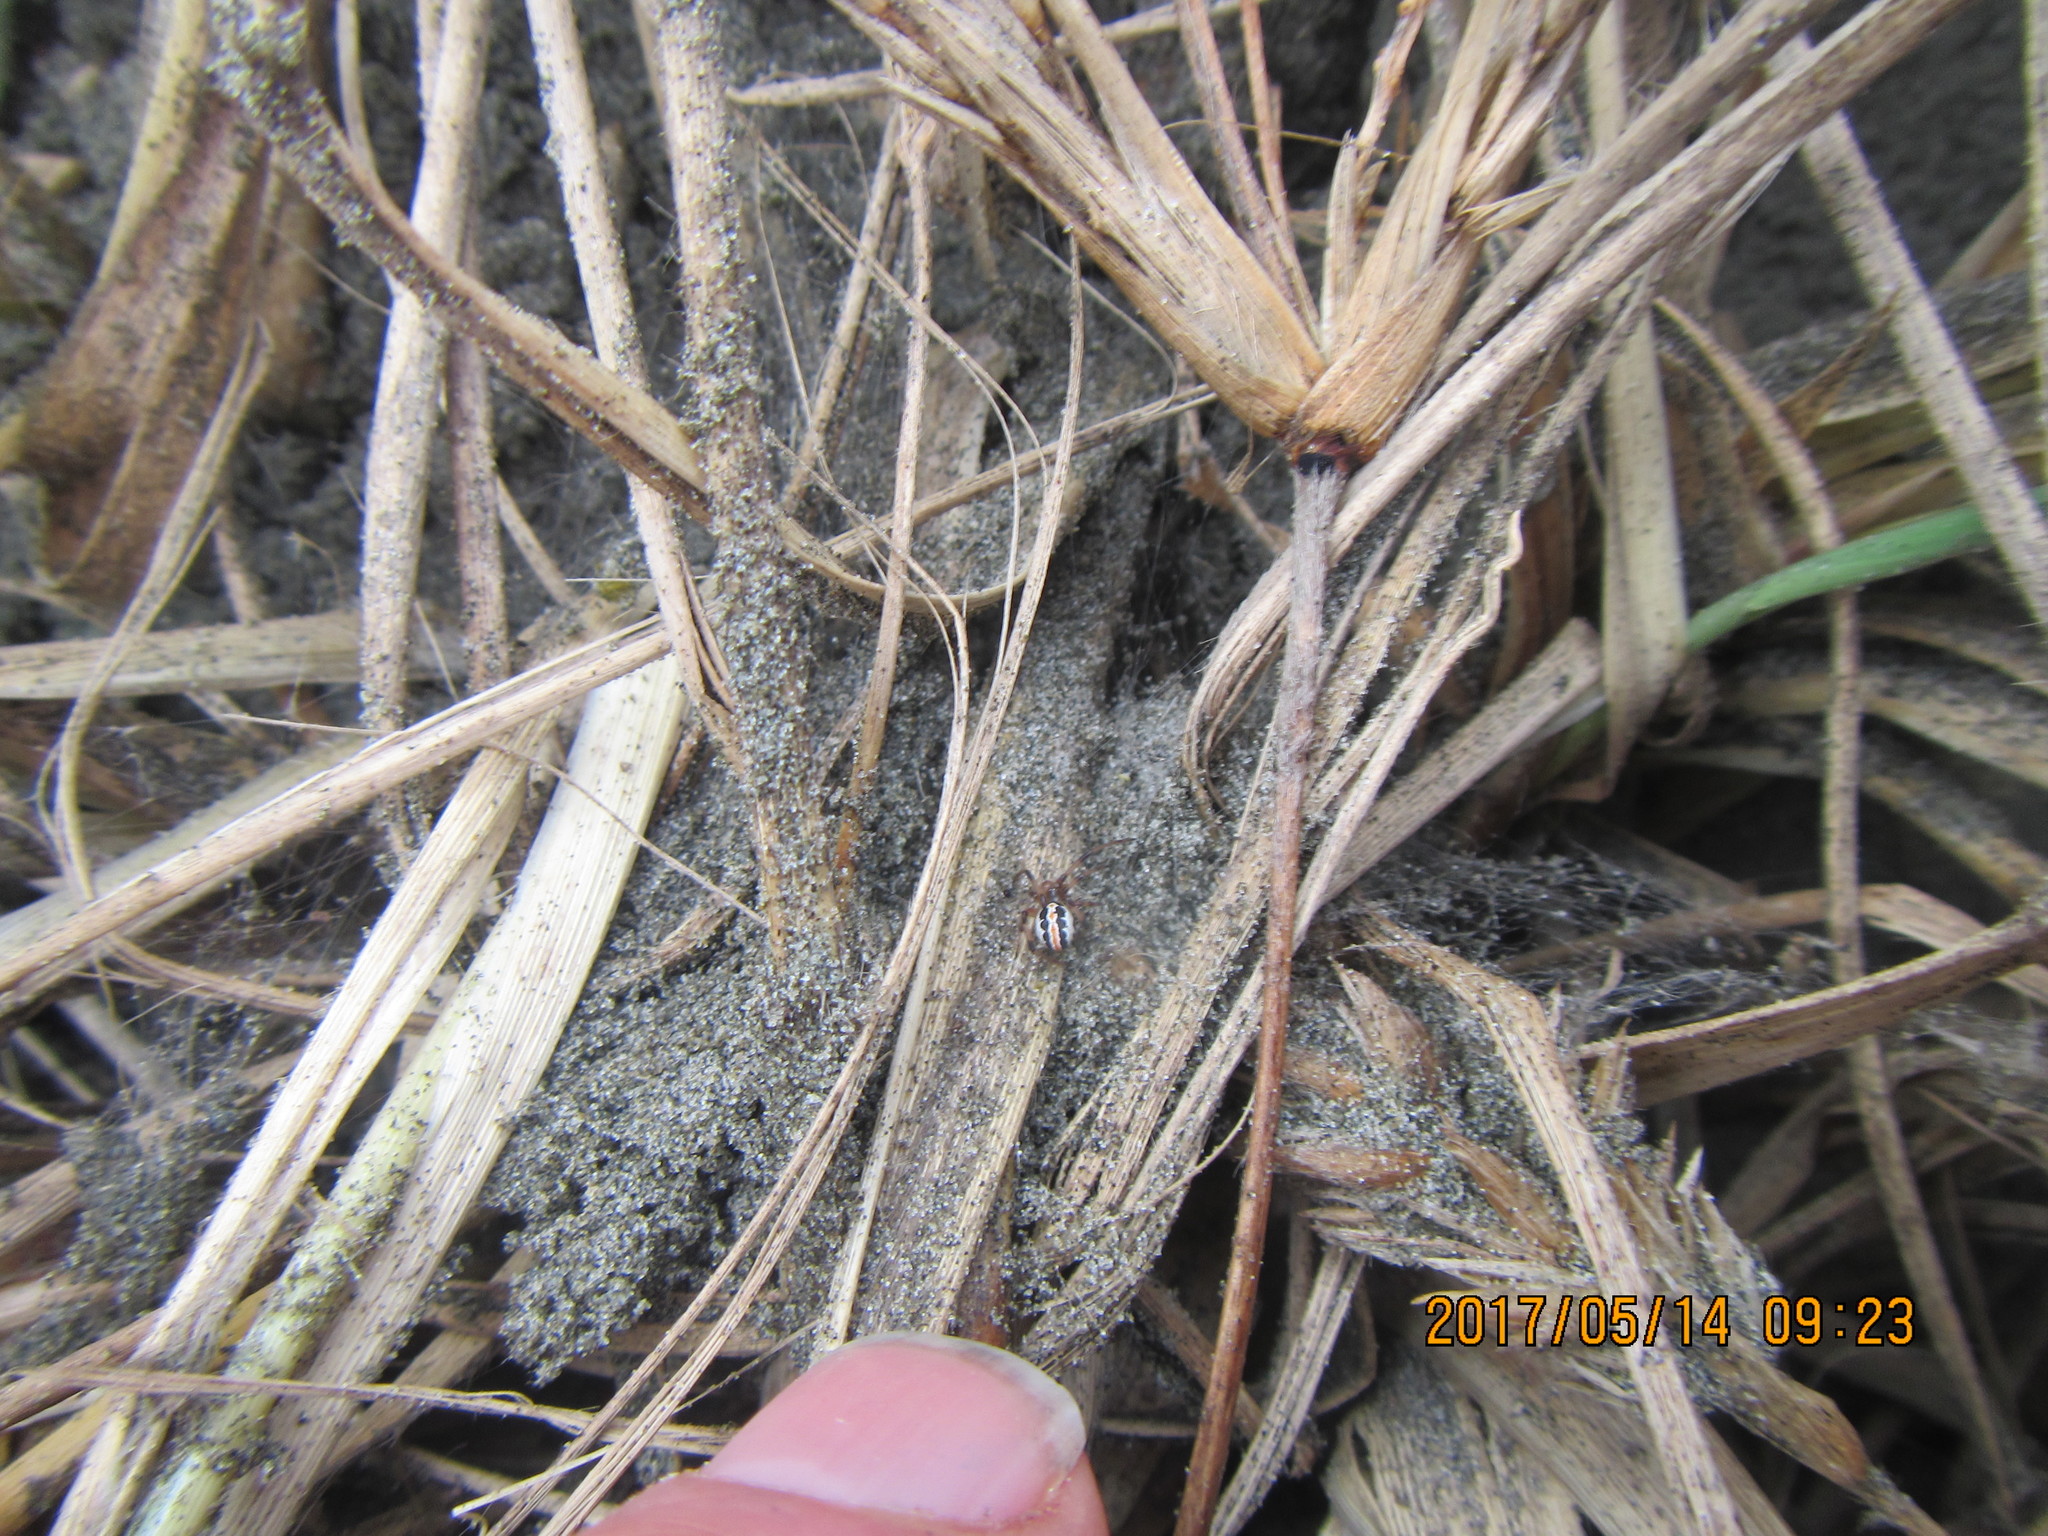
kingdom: Animalia
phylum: Arthropoda
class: Arachnida
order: Araneae
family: Theridiidae
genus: Latrodectus
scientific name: Latrodectus katipo
